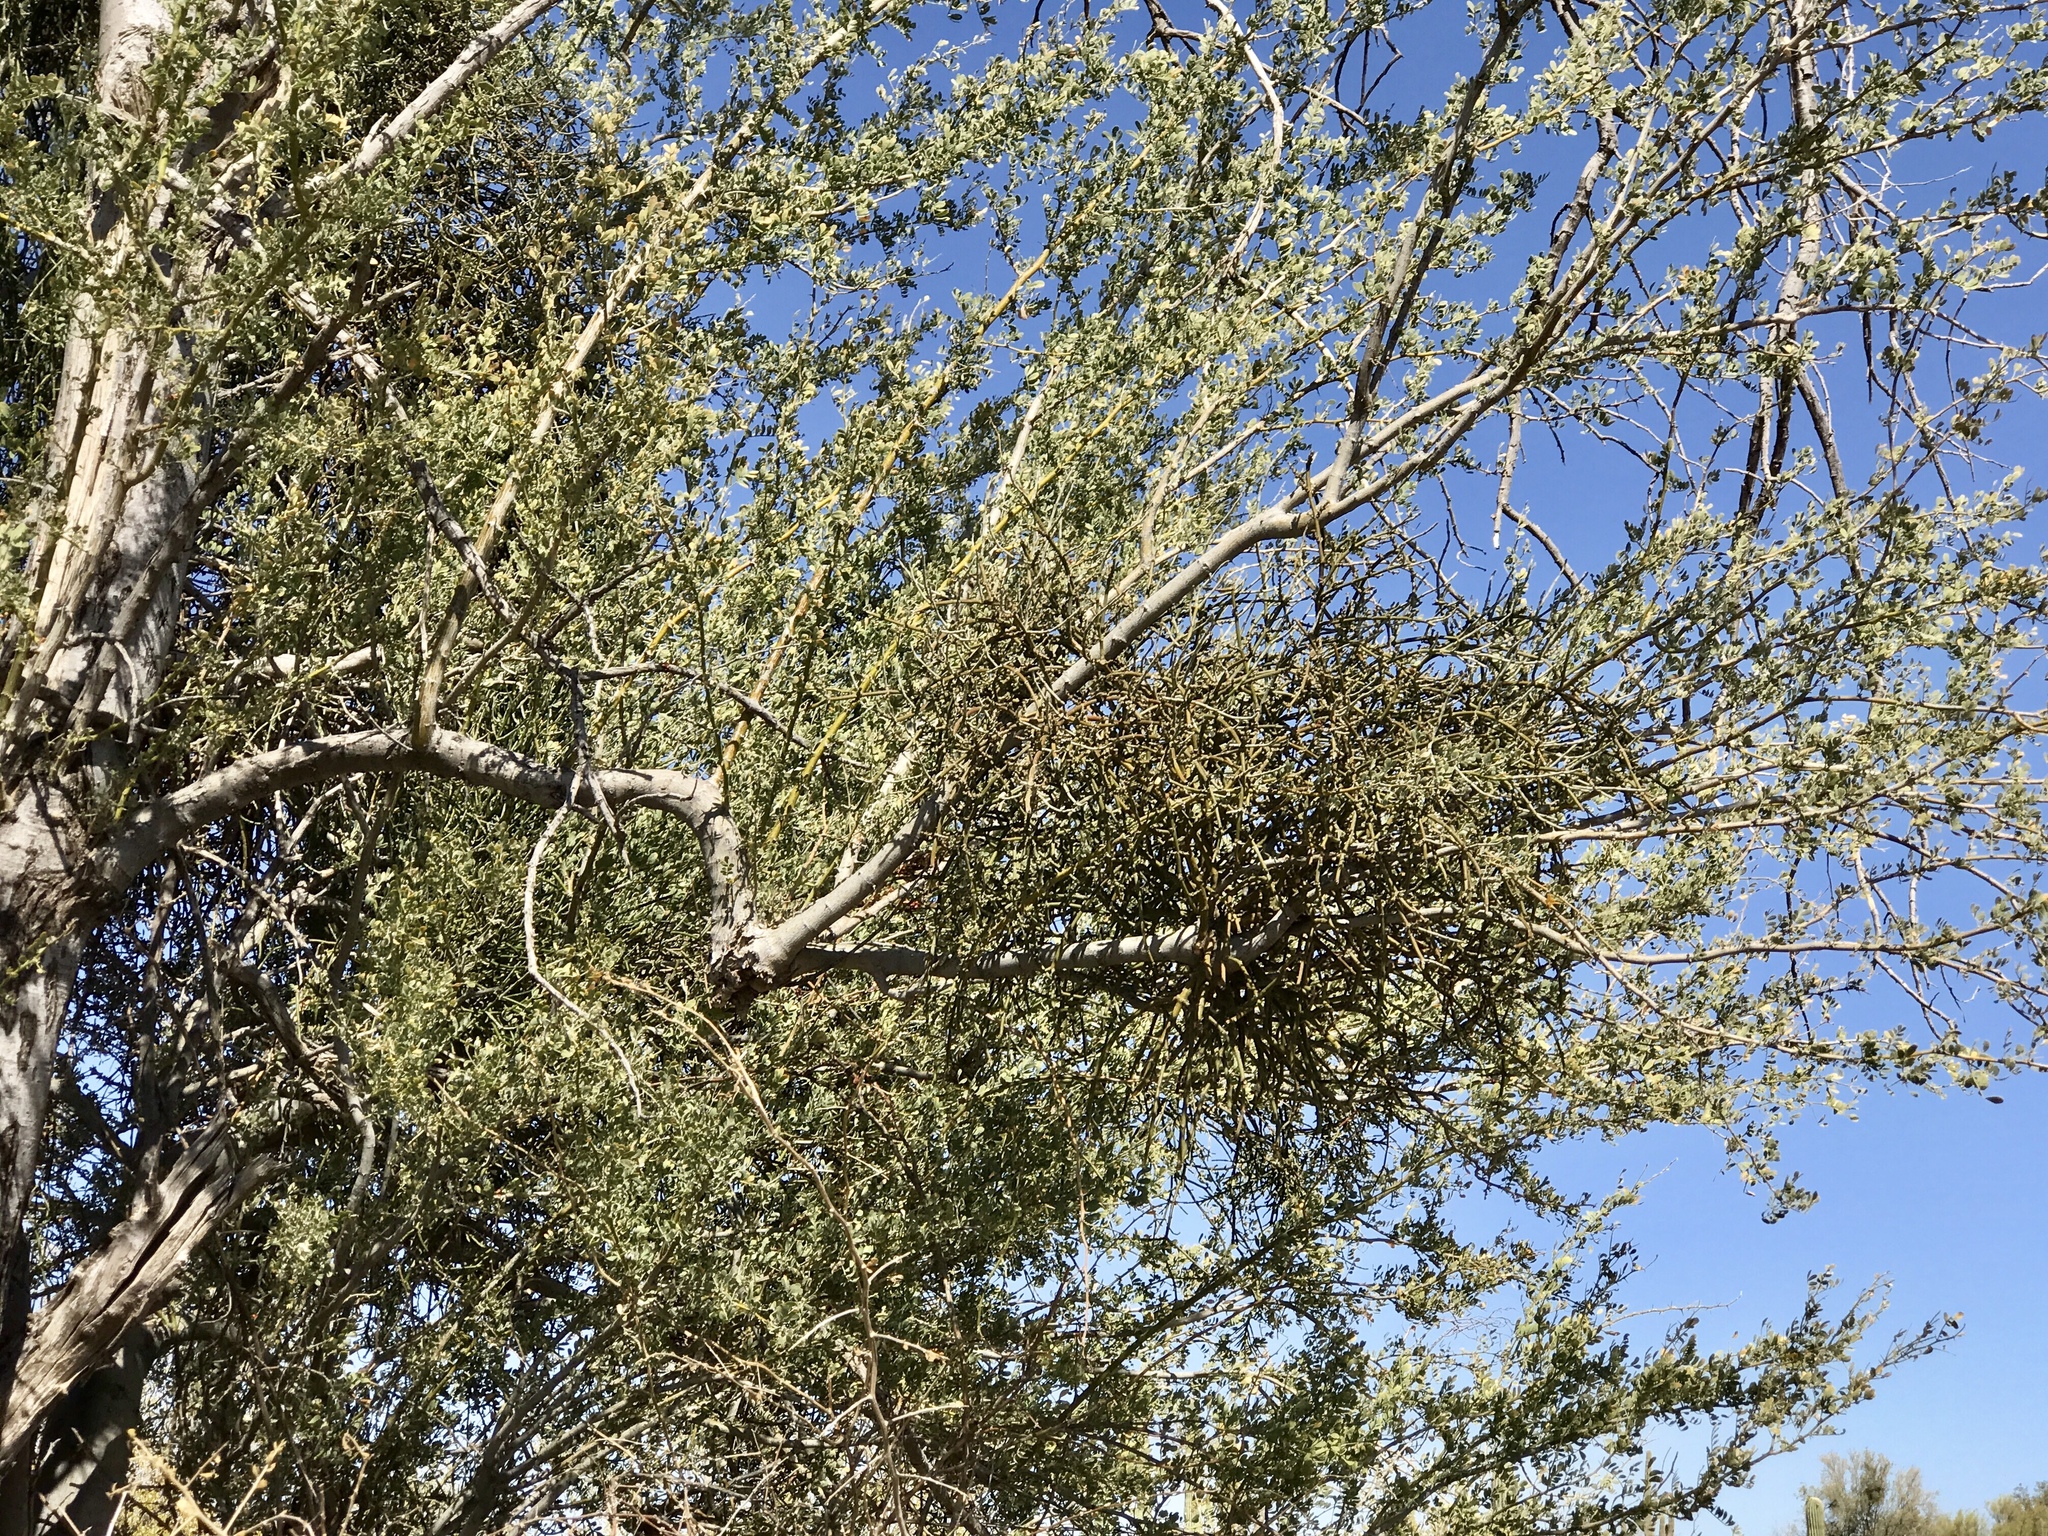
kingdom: Plantae
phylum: Tracheophyta
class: Magnoliopsida
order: Santalales
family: Viscaceae
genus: Phoradendron
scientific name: Phoradendron californicum
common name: Acacia mistletoe
